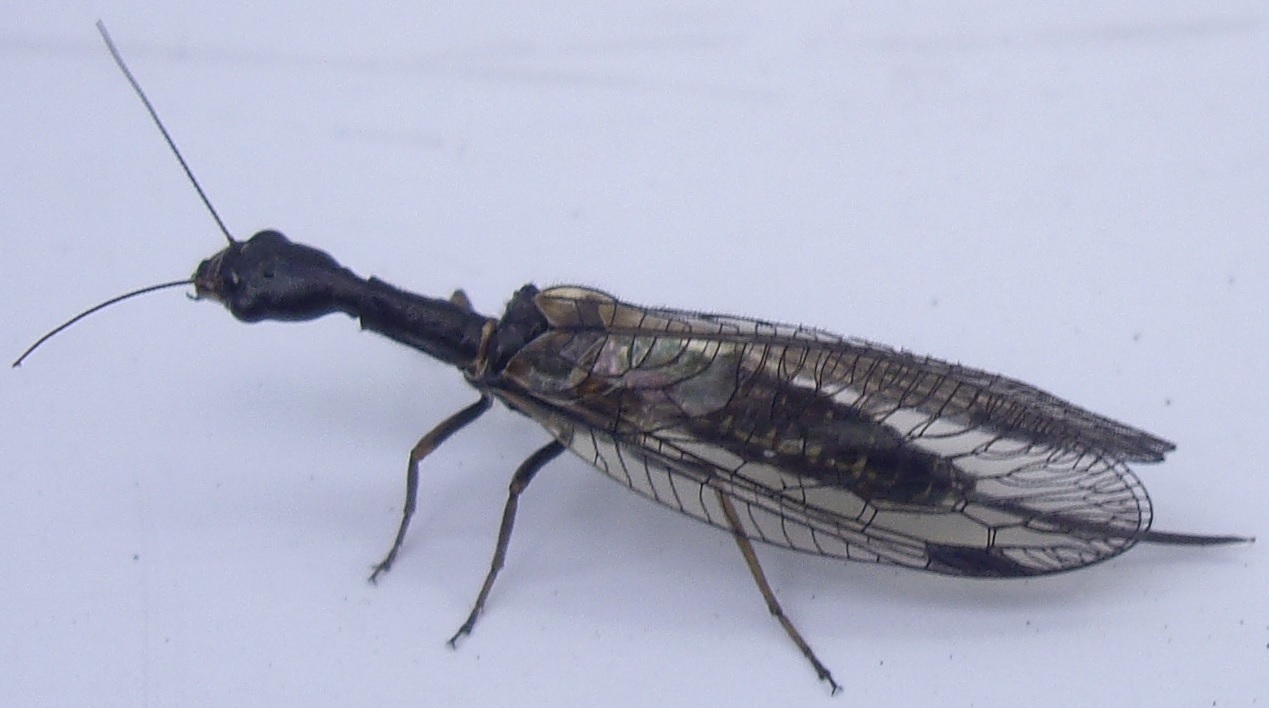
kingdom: Animalia
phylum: Arthropoda
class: Insecta
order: Raphidioptera
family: Raphidiidae
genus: Phaeostigma
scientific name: Phaeostigma notatum
